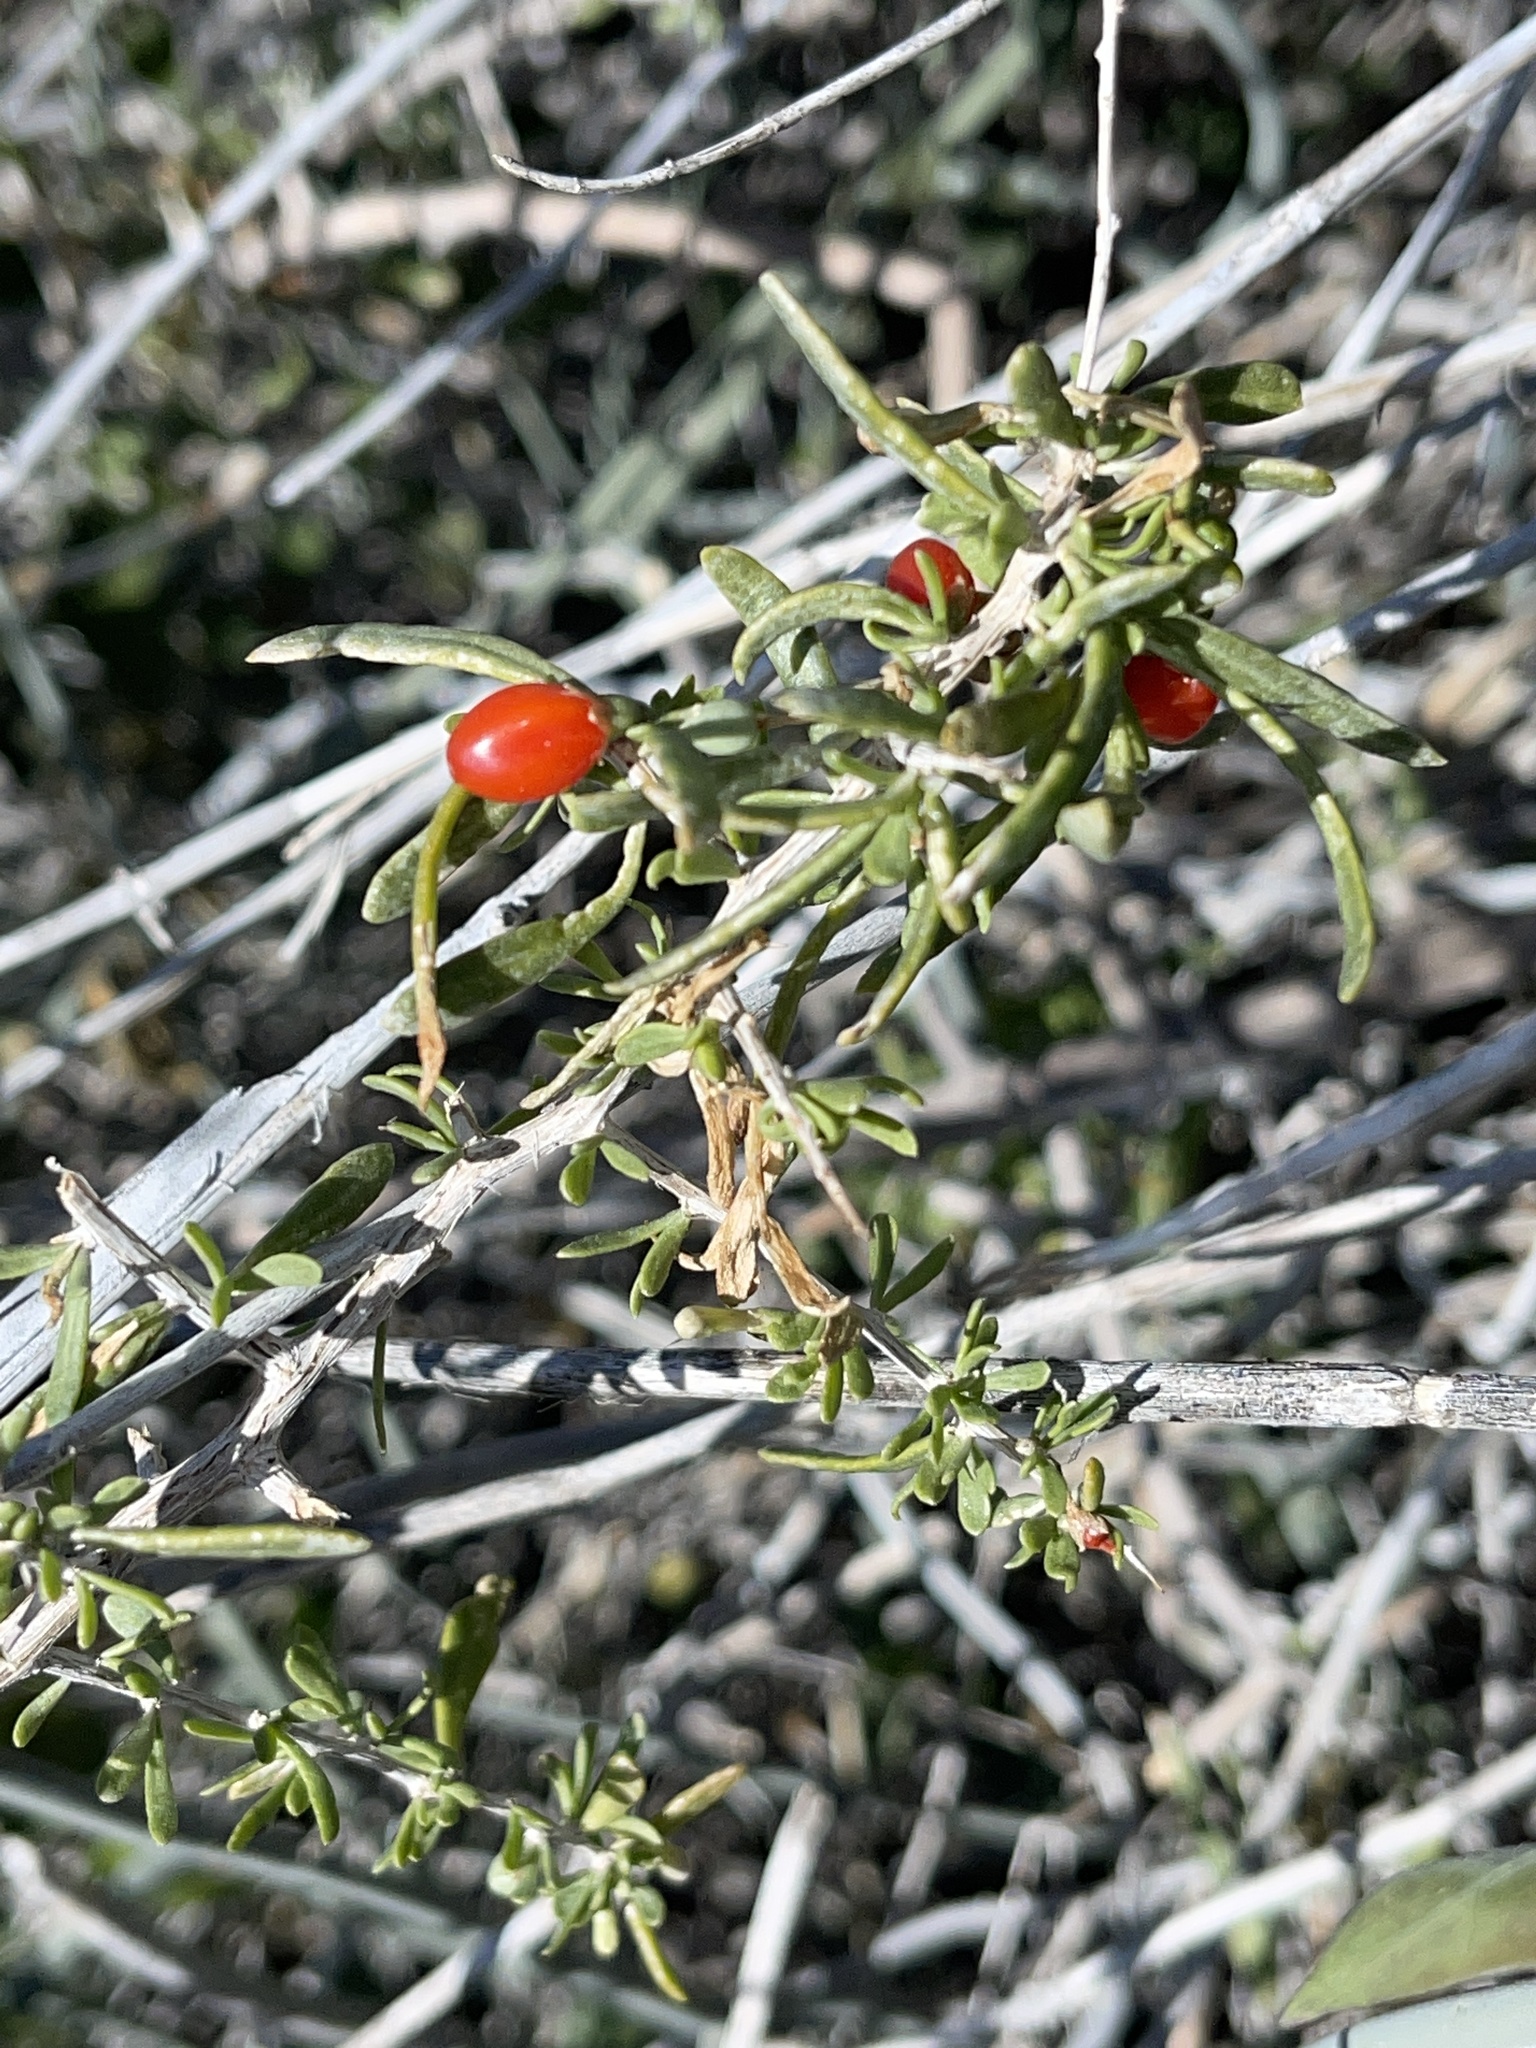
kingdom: Plantae
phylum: Tracheophyta
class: Magnoliopsida
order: Solanales
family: Solanaceae
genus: Lycium
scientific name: Lycium andersonii
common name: Water-jacket
